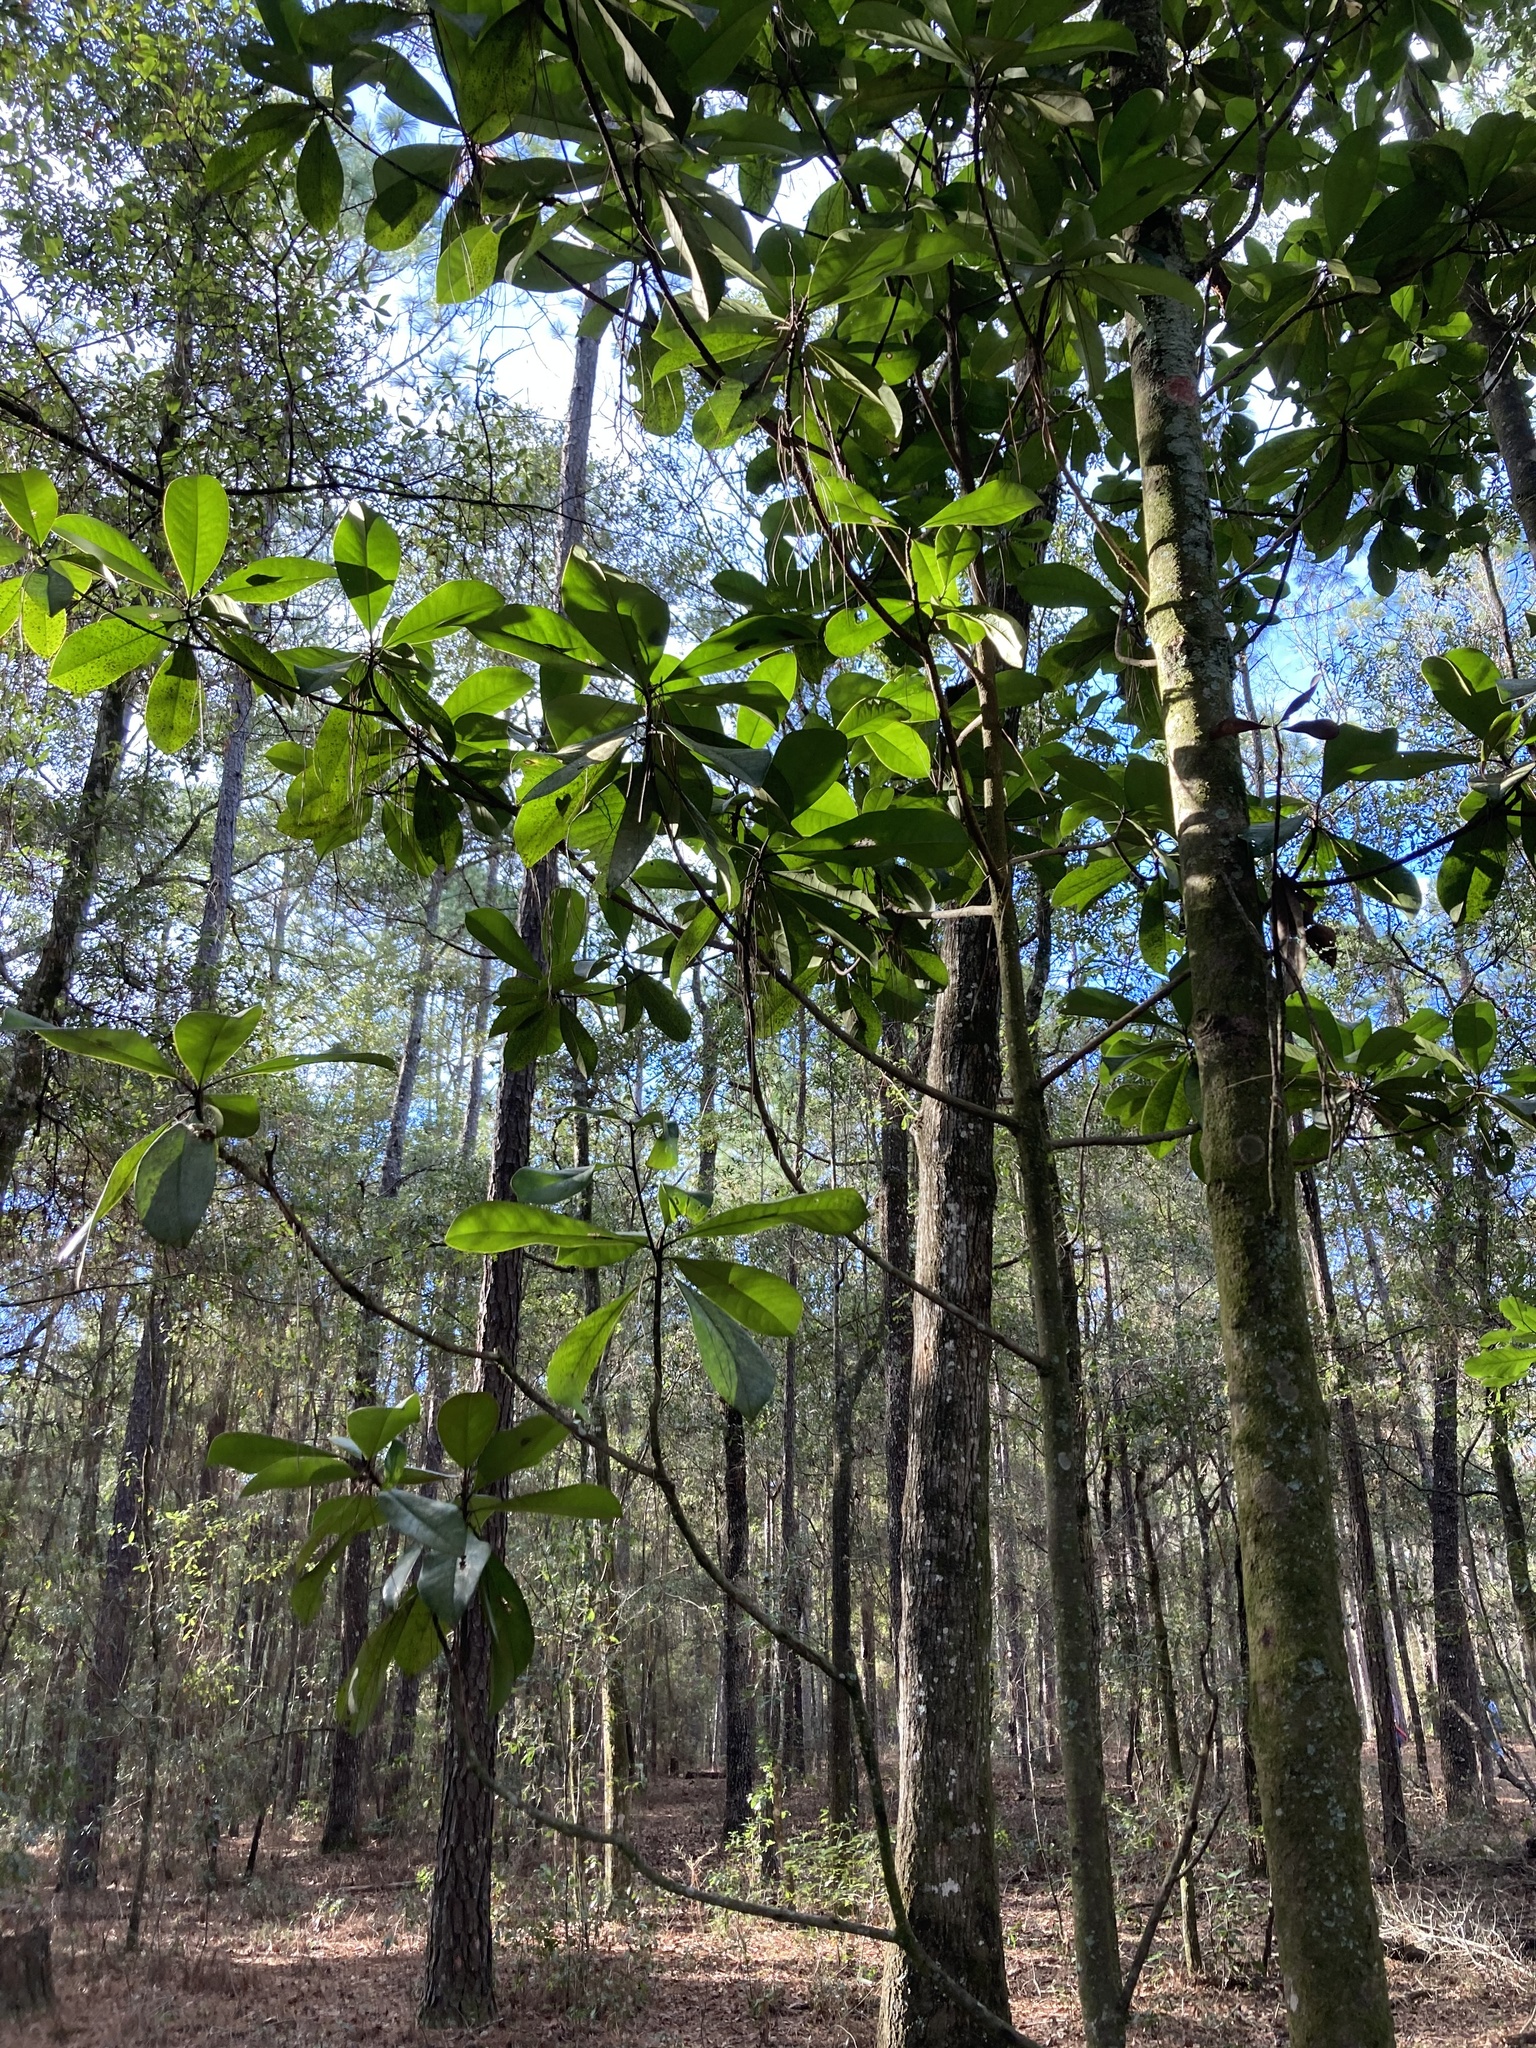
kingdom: Plantae
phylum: Tracheophyta
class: Magnoliopsida
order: Magnoliales
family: Magnoliaceae
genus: Magnolia
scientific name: Magnolia grandiflora
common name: Southern magnolia
